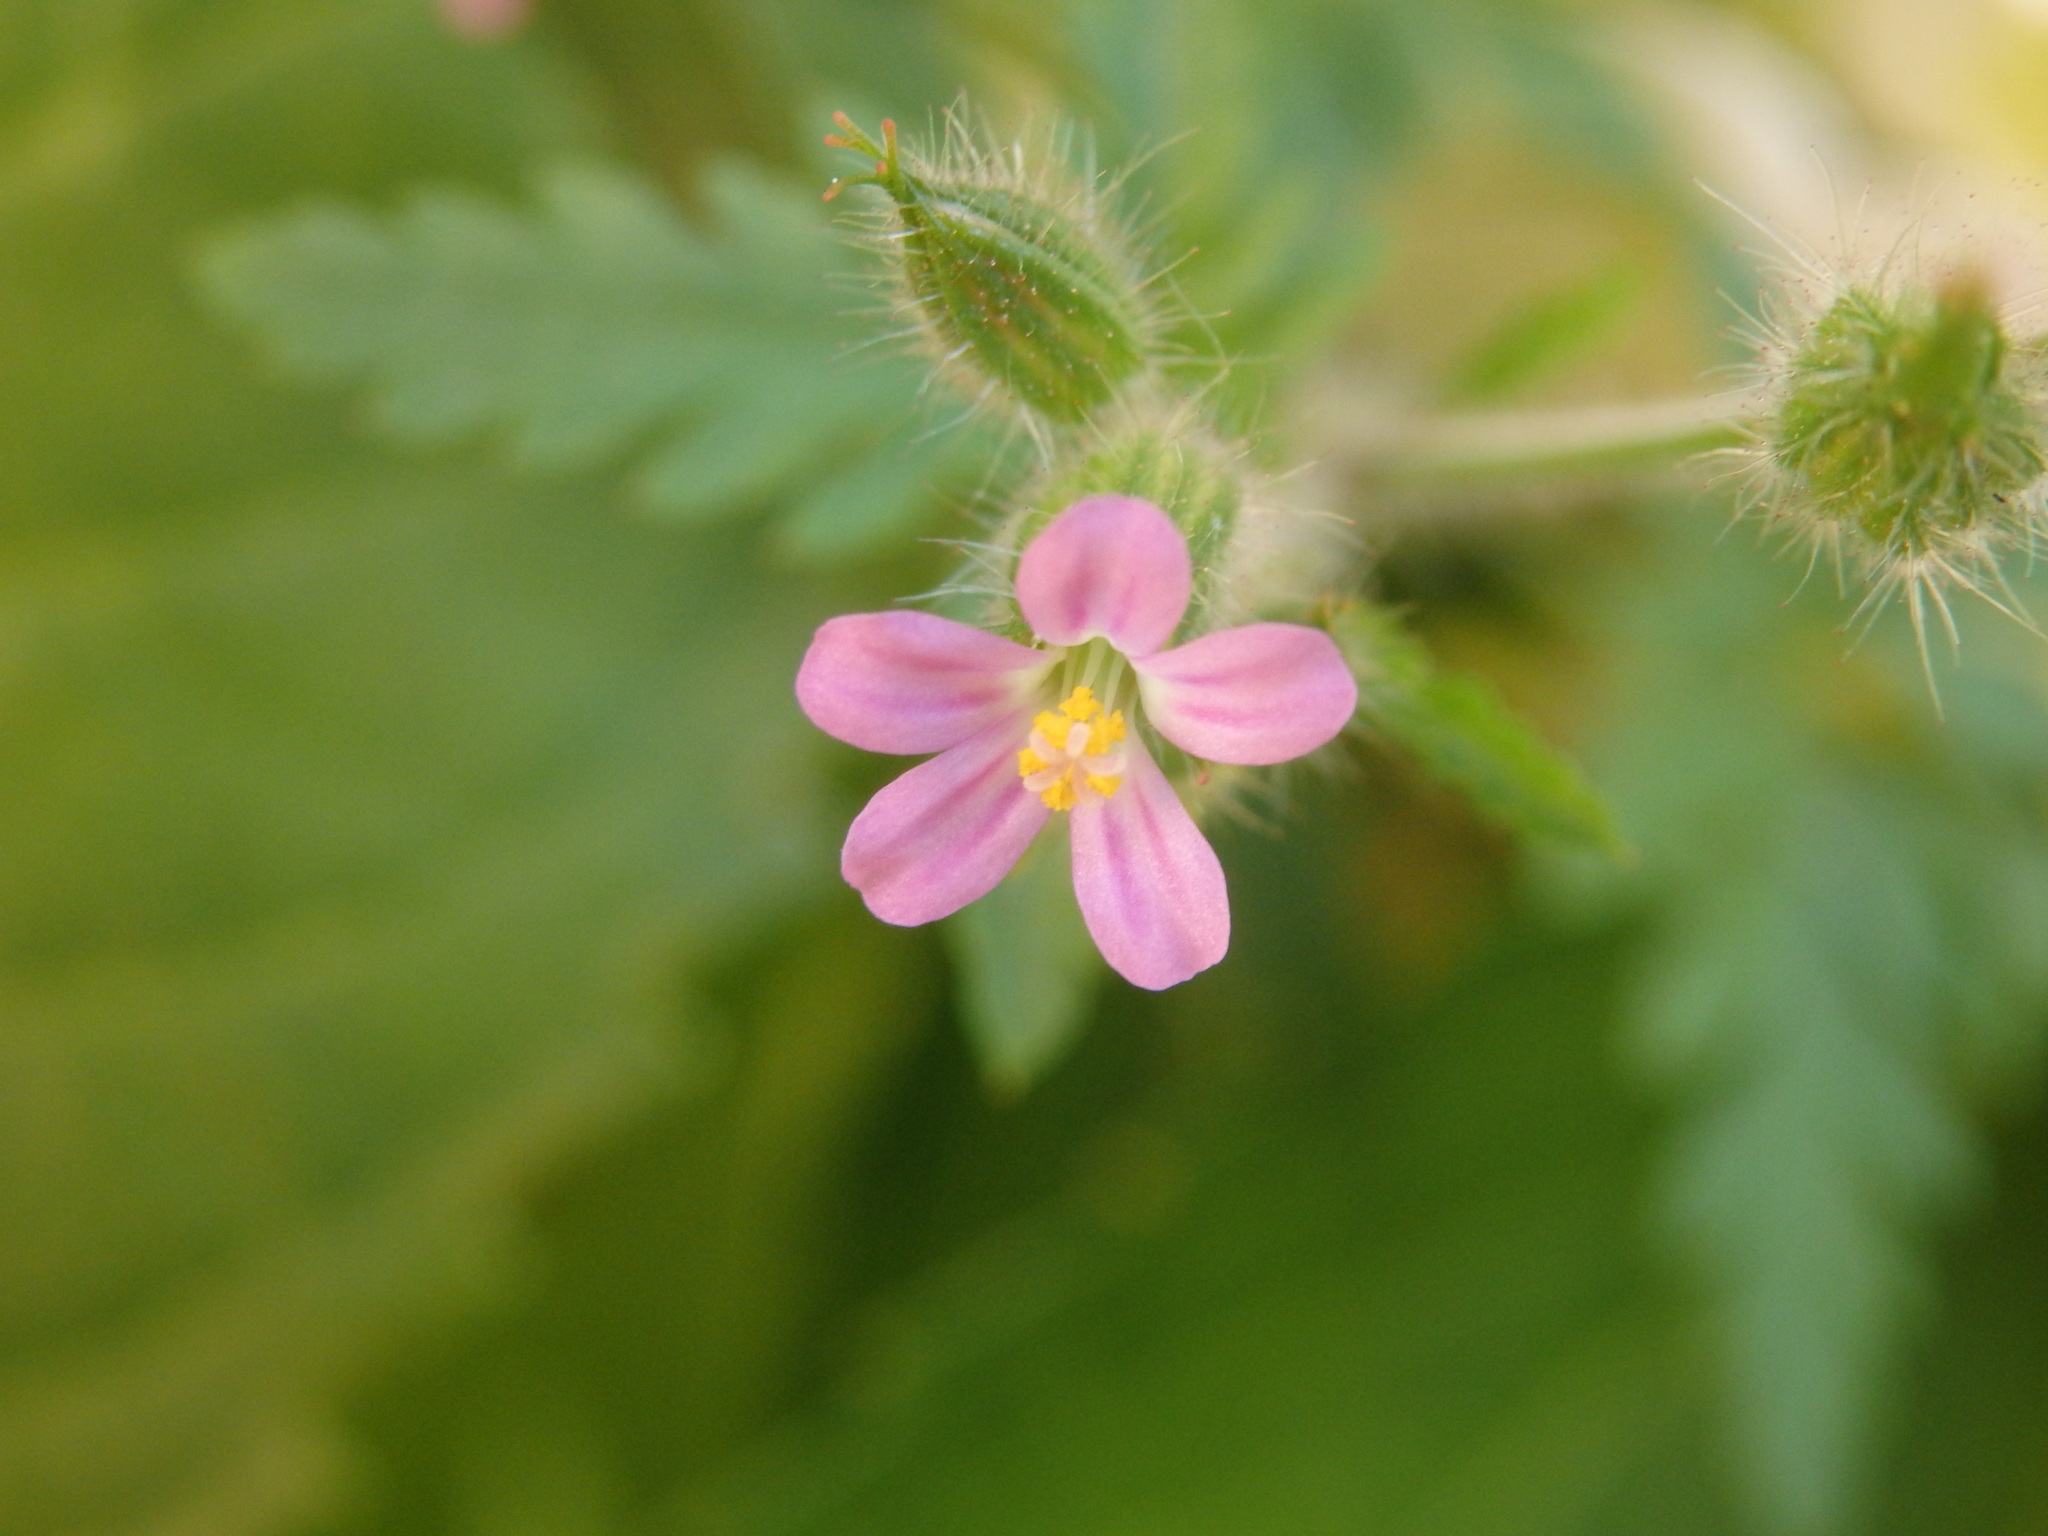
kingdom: Plantae
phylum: Tracheophyta
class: Magnoliopsida
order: Geraniales
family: Geraniaceae
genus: Geranium
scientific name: Geranium purpureum
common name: Little-robin
